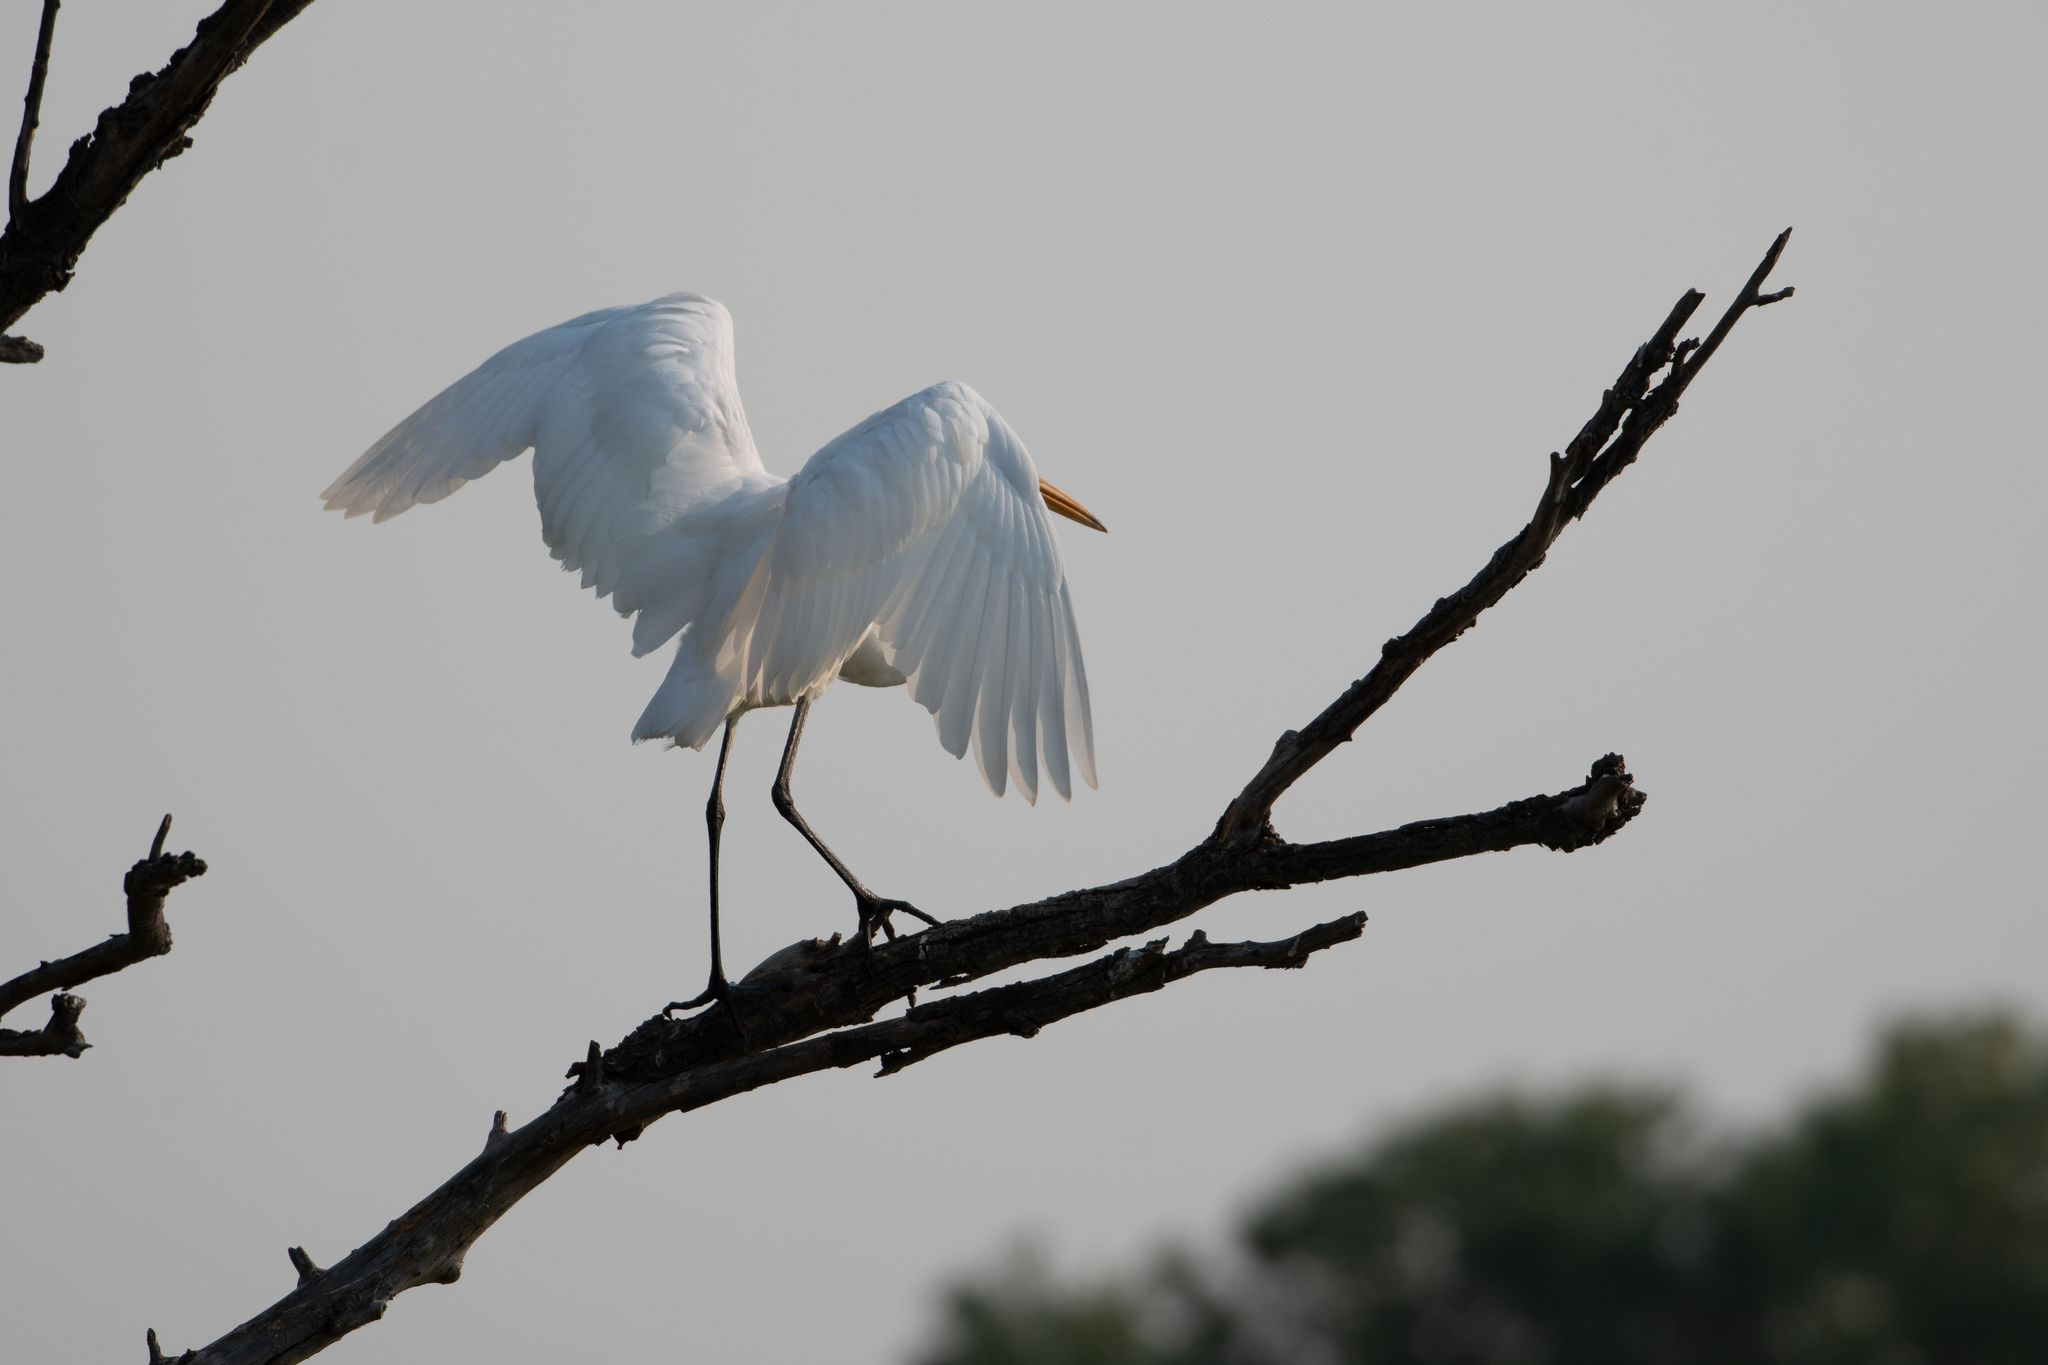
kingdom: Animalia
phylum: Chordata
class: Aves
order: Pelecaniformes
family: Ardeidae
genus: Ardea
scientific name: Ardea alba
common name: Great egret
